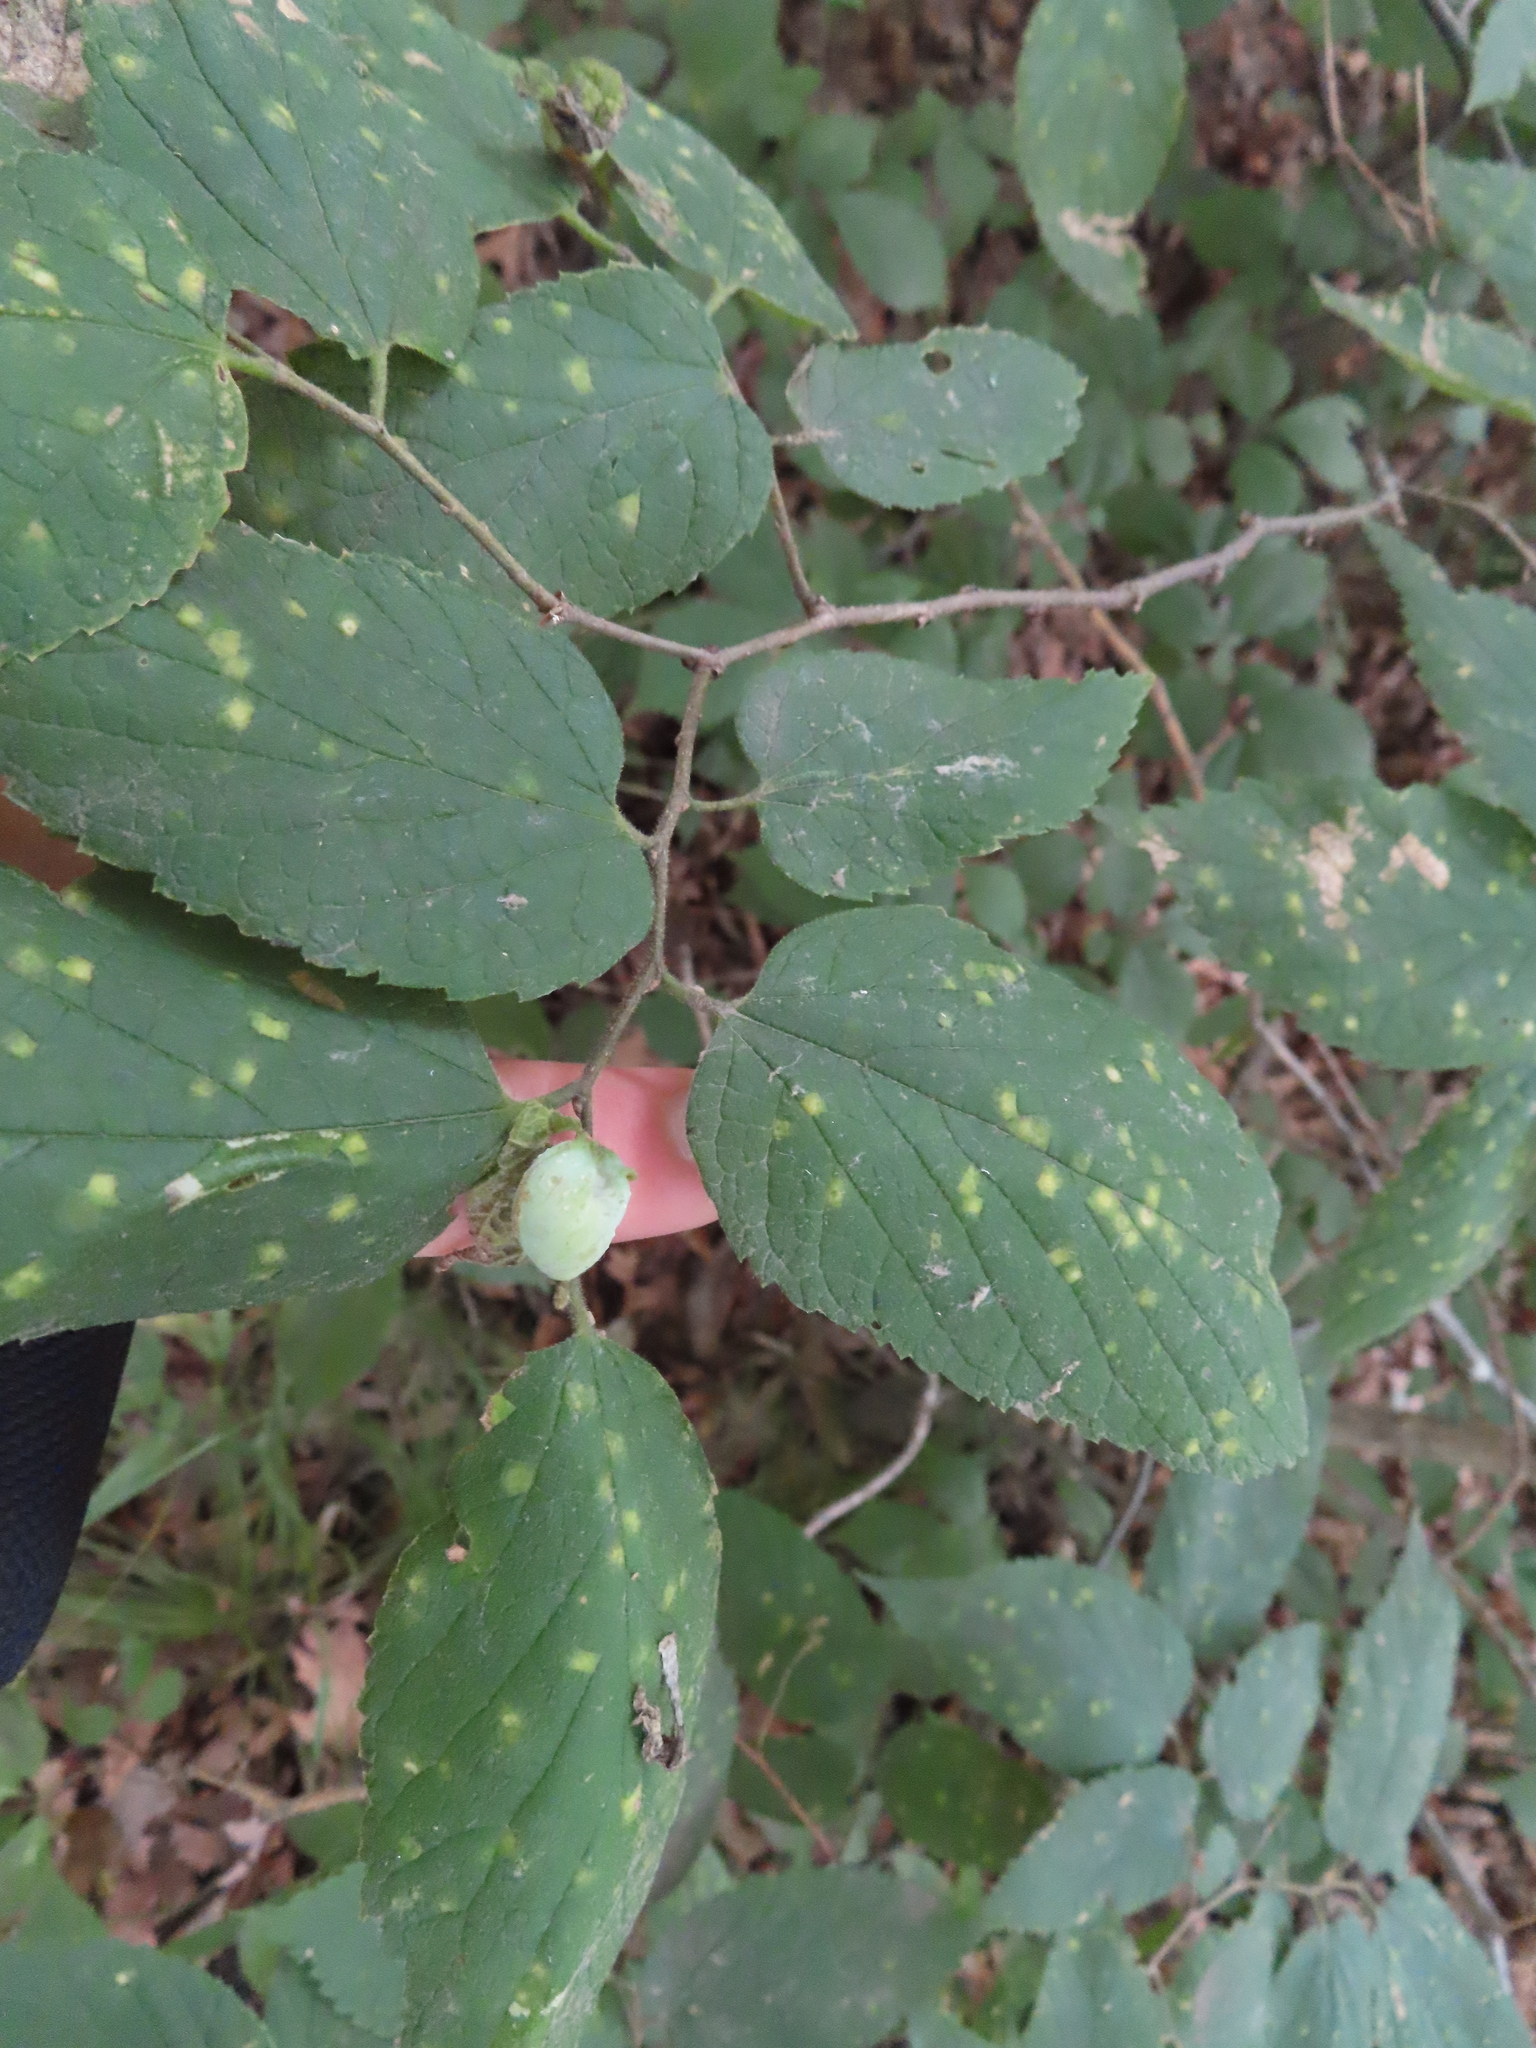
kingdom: Animalia
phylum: Arthropoda
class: Insecta
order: Hemiptera
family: Aphalaridae
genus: Pachypsylla
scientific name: Pachypsylla celtidisvesicula
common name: Hackberry blister gall psyllid
